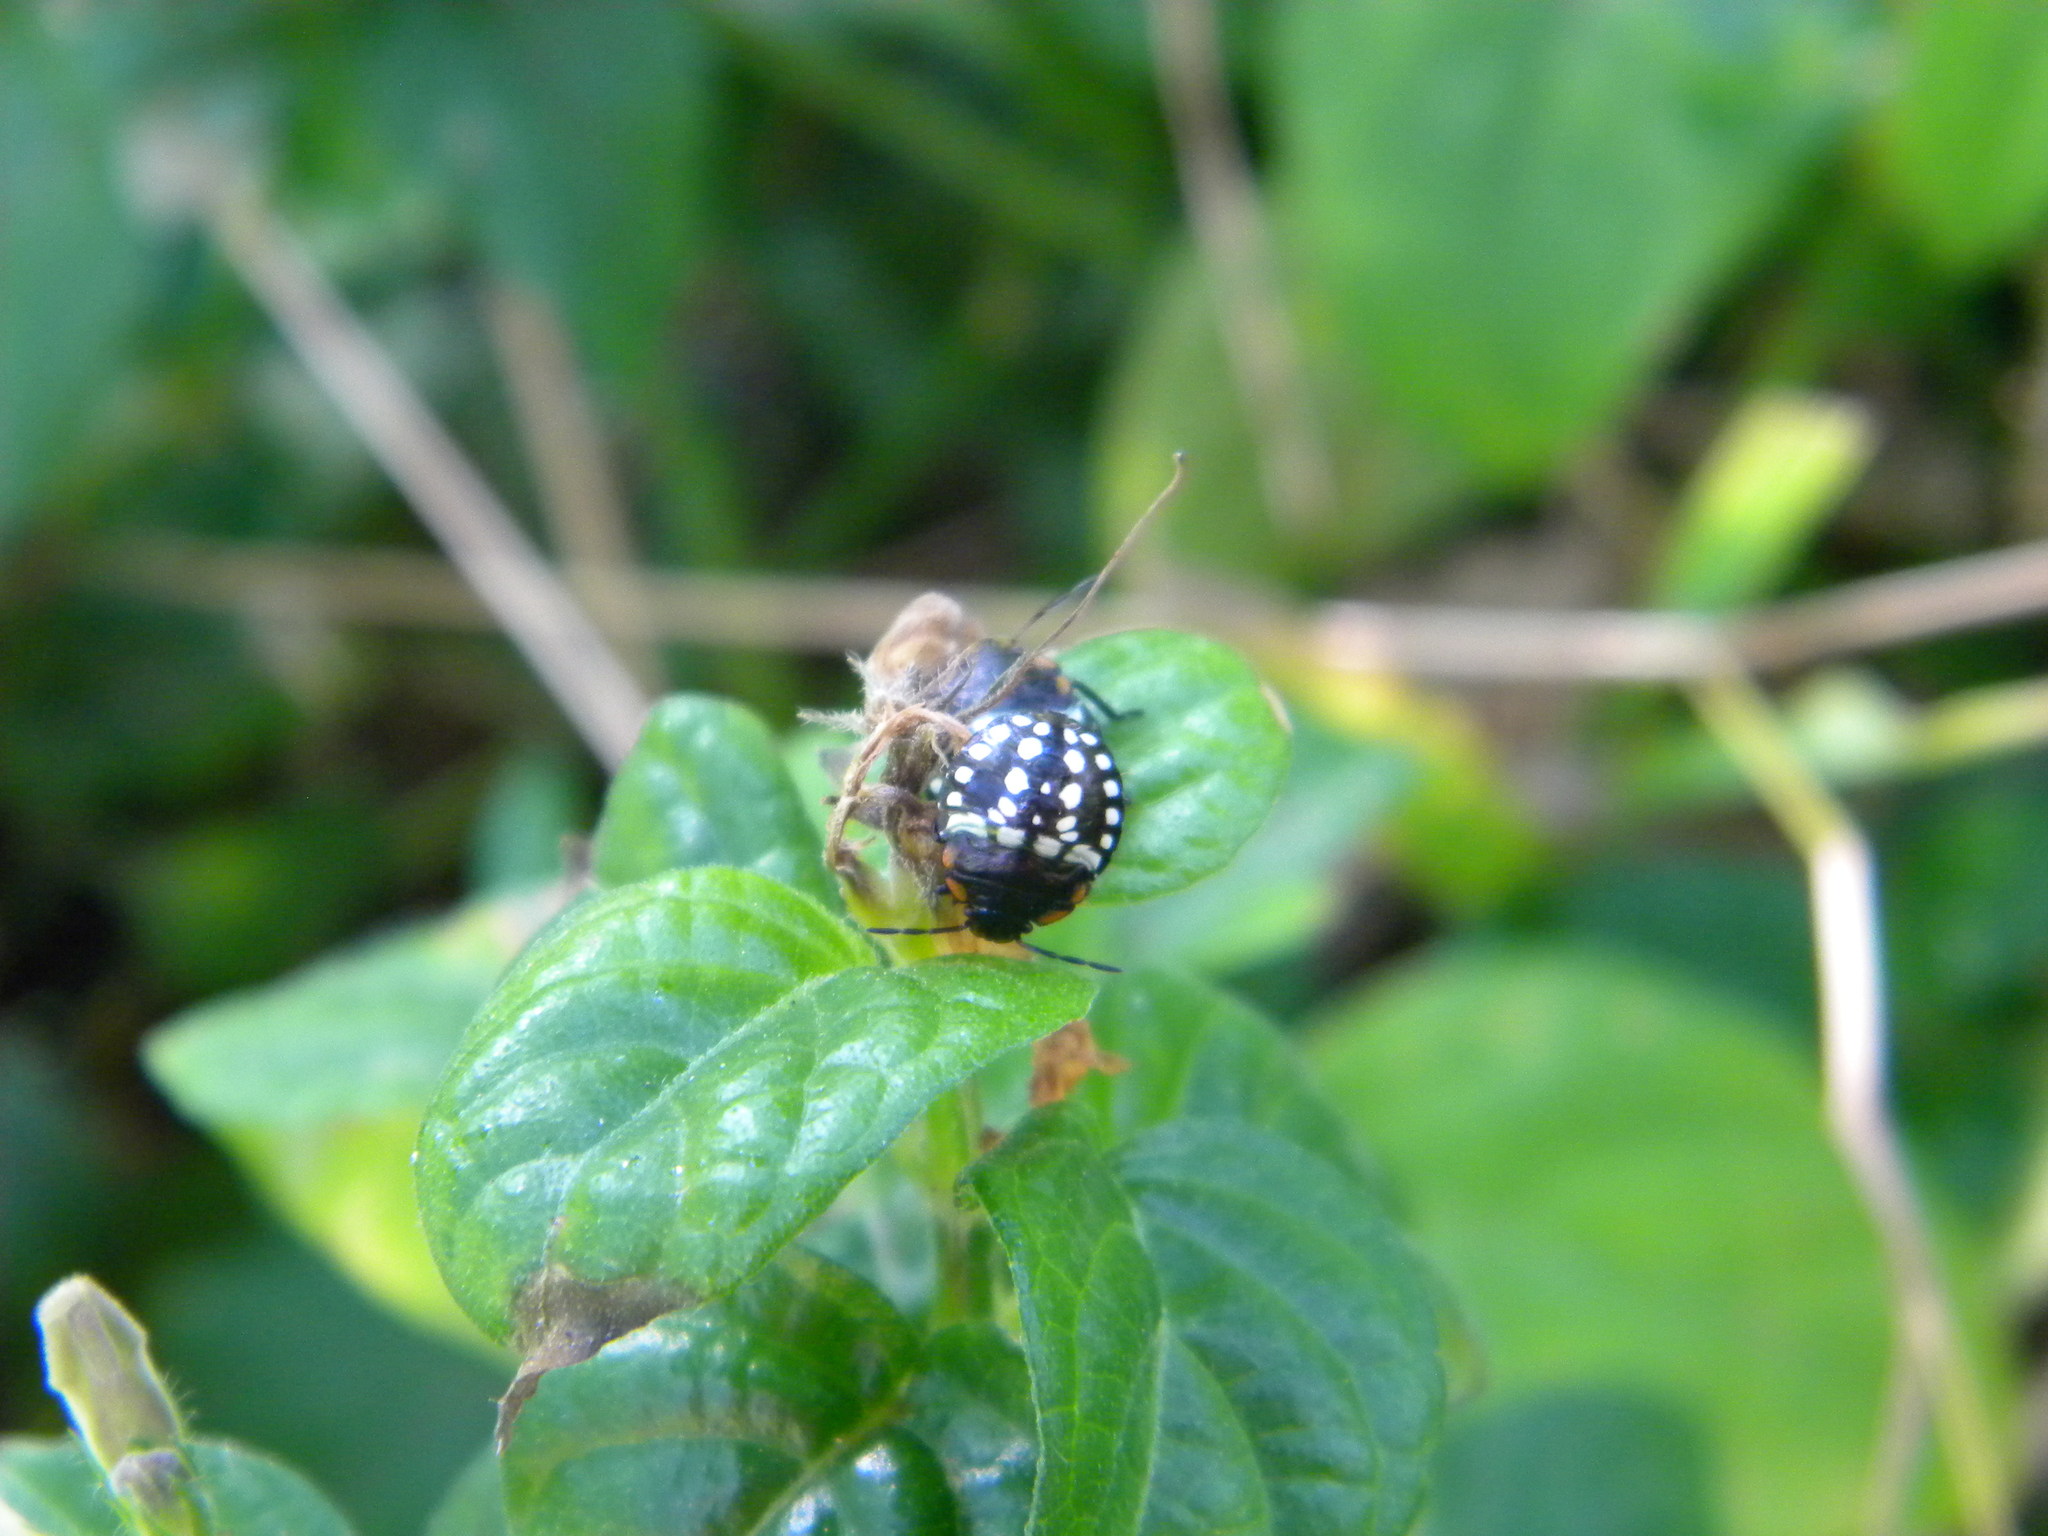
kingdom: Animalia
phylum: Arthropoda
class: Insecta
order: Hemiptera
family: Pentatomidae
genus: Nezara
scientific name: Nezara viridula
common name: Southern green stink bug
